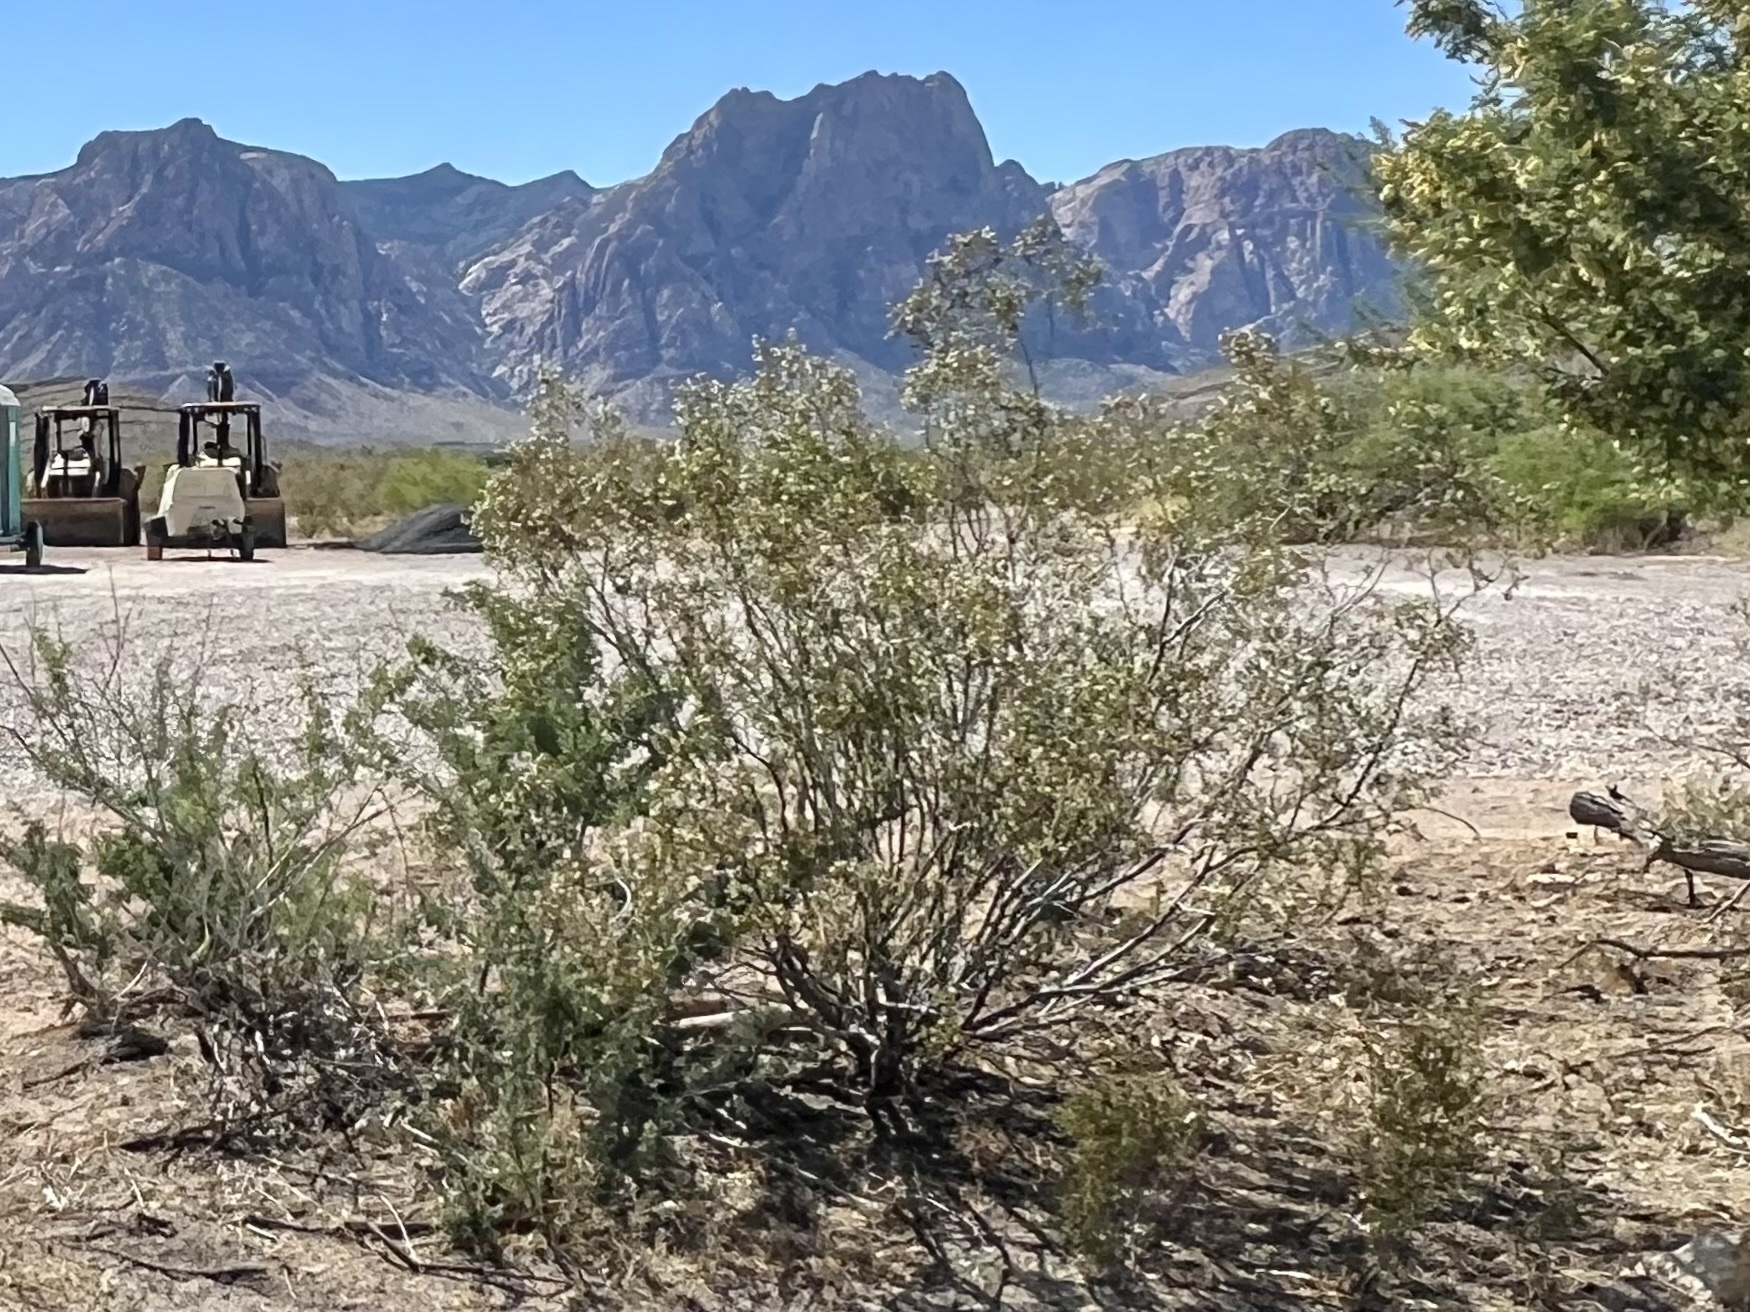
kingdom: Plantae
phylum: Tracheophyta
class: Magnoliopsida
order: Zygophyllales
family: Zygophyllaceae
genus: Larrea
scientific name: Larrea tridentata
